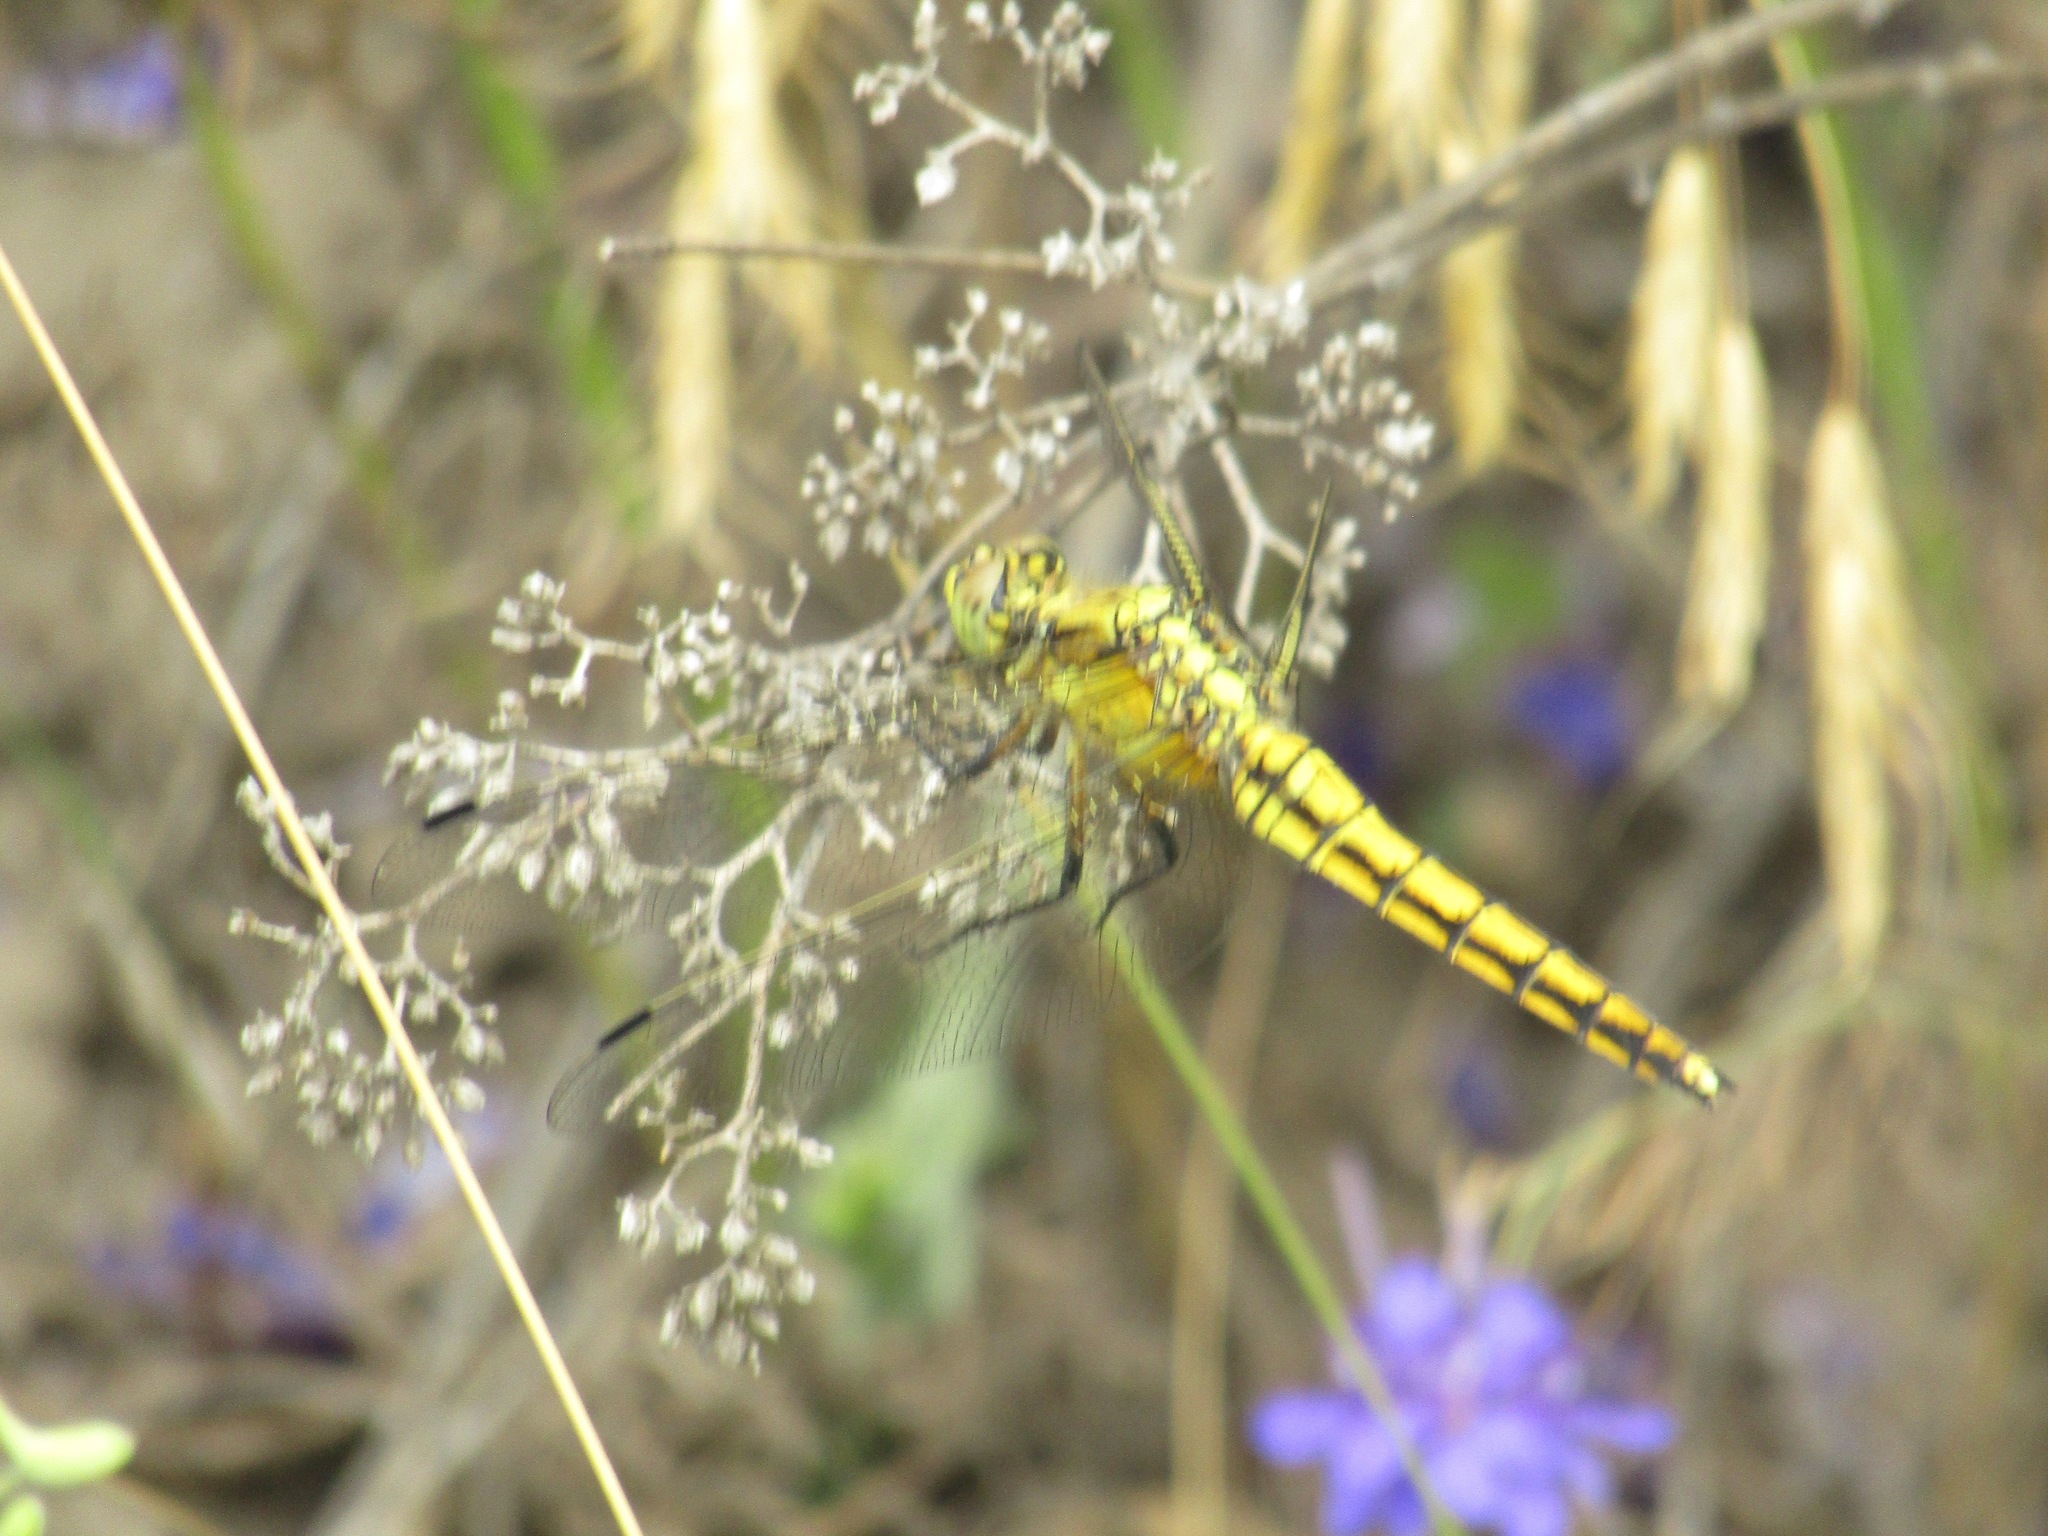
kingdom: Animalia
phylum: Arthropoda
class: Insecta
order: Odonata
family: Libellulidae
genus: Orthetrum
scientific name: Orthetrum cancellatum
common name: Black-tailed skimmer
